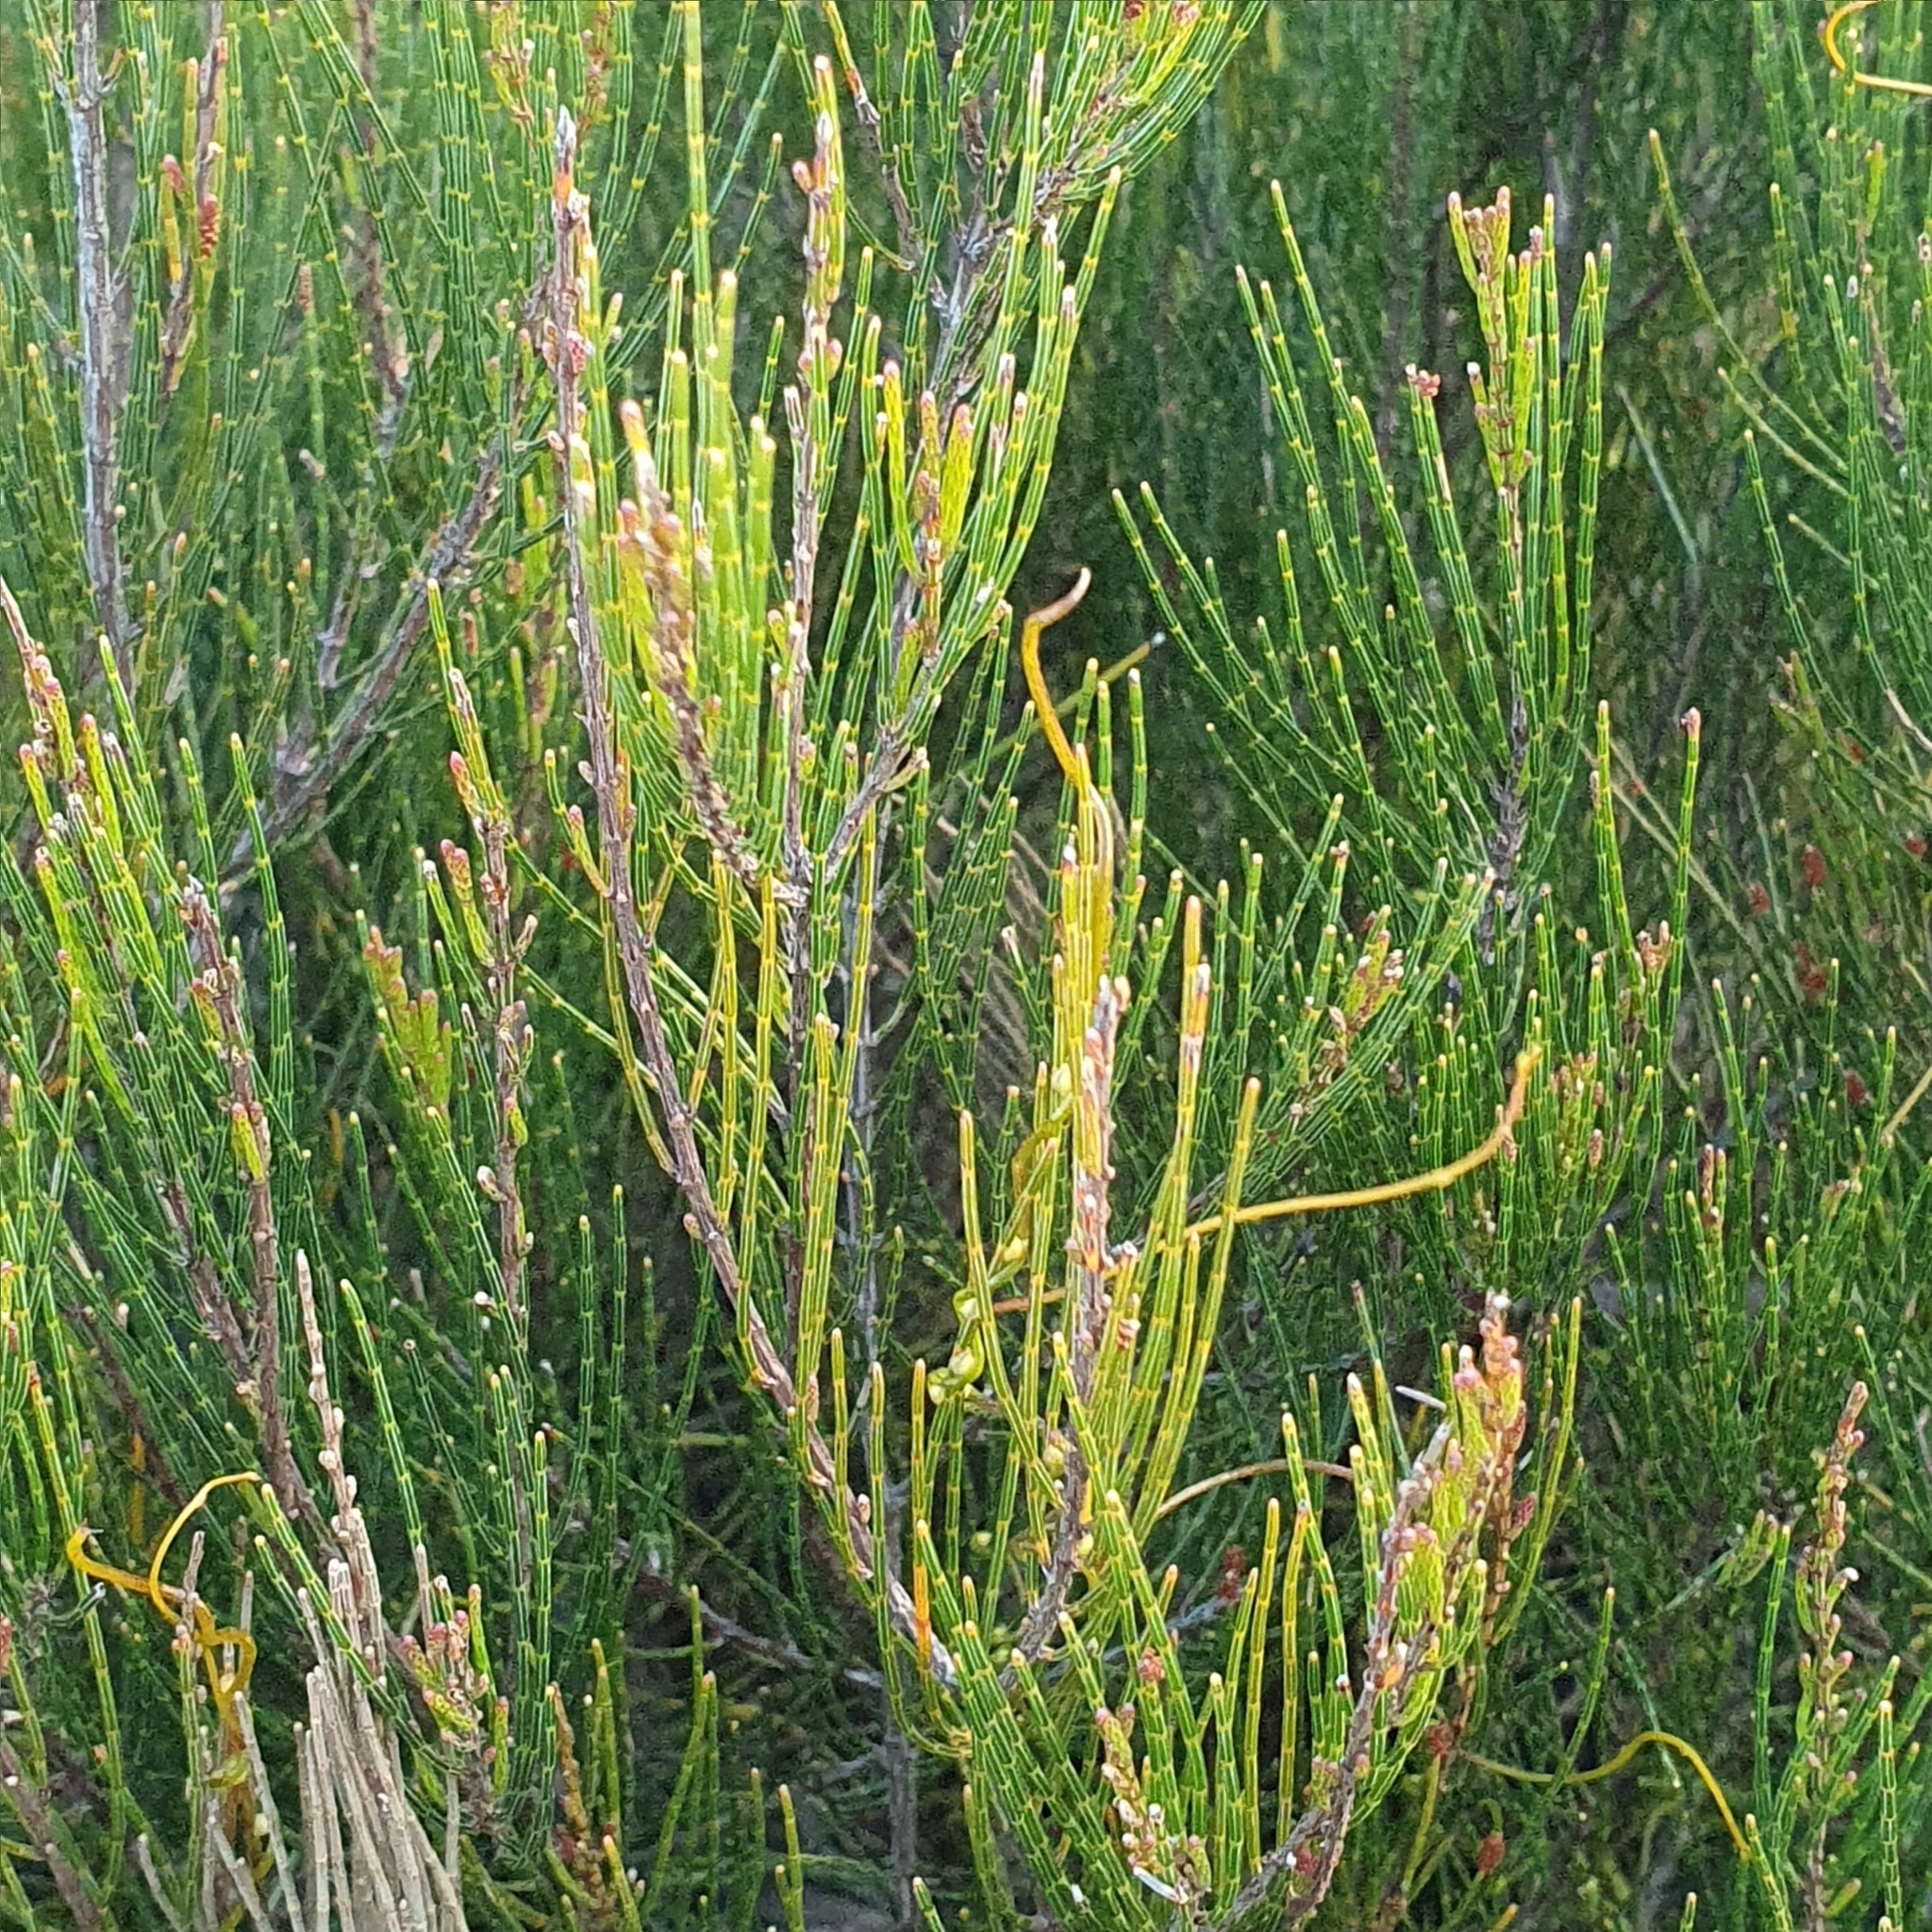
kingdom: Plantae
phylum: Tracheophyta
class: Magnoliopsida
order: Fagales
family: Casuarinaceae
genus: Allocasuarina
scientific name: Allocasuarina distyla
